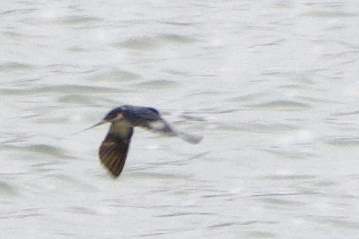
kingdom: Animalia
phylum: Chordata
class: Aves
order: Passeriformes
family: Hirundinidae
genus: Hirundo
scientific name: Hirundo rustica
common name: Barn swallow
